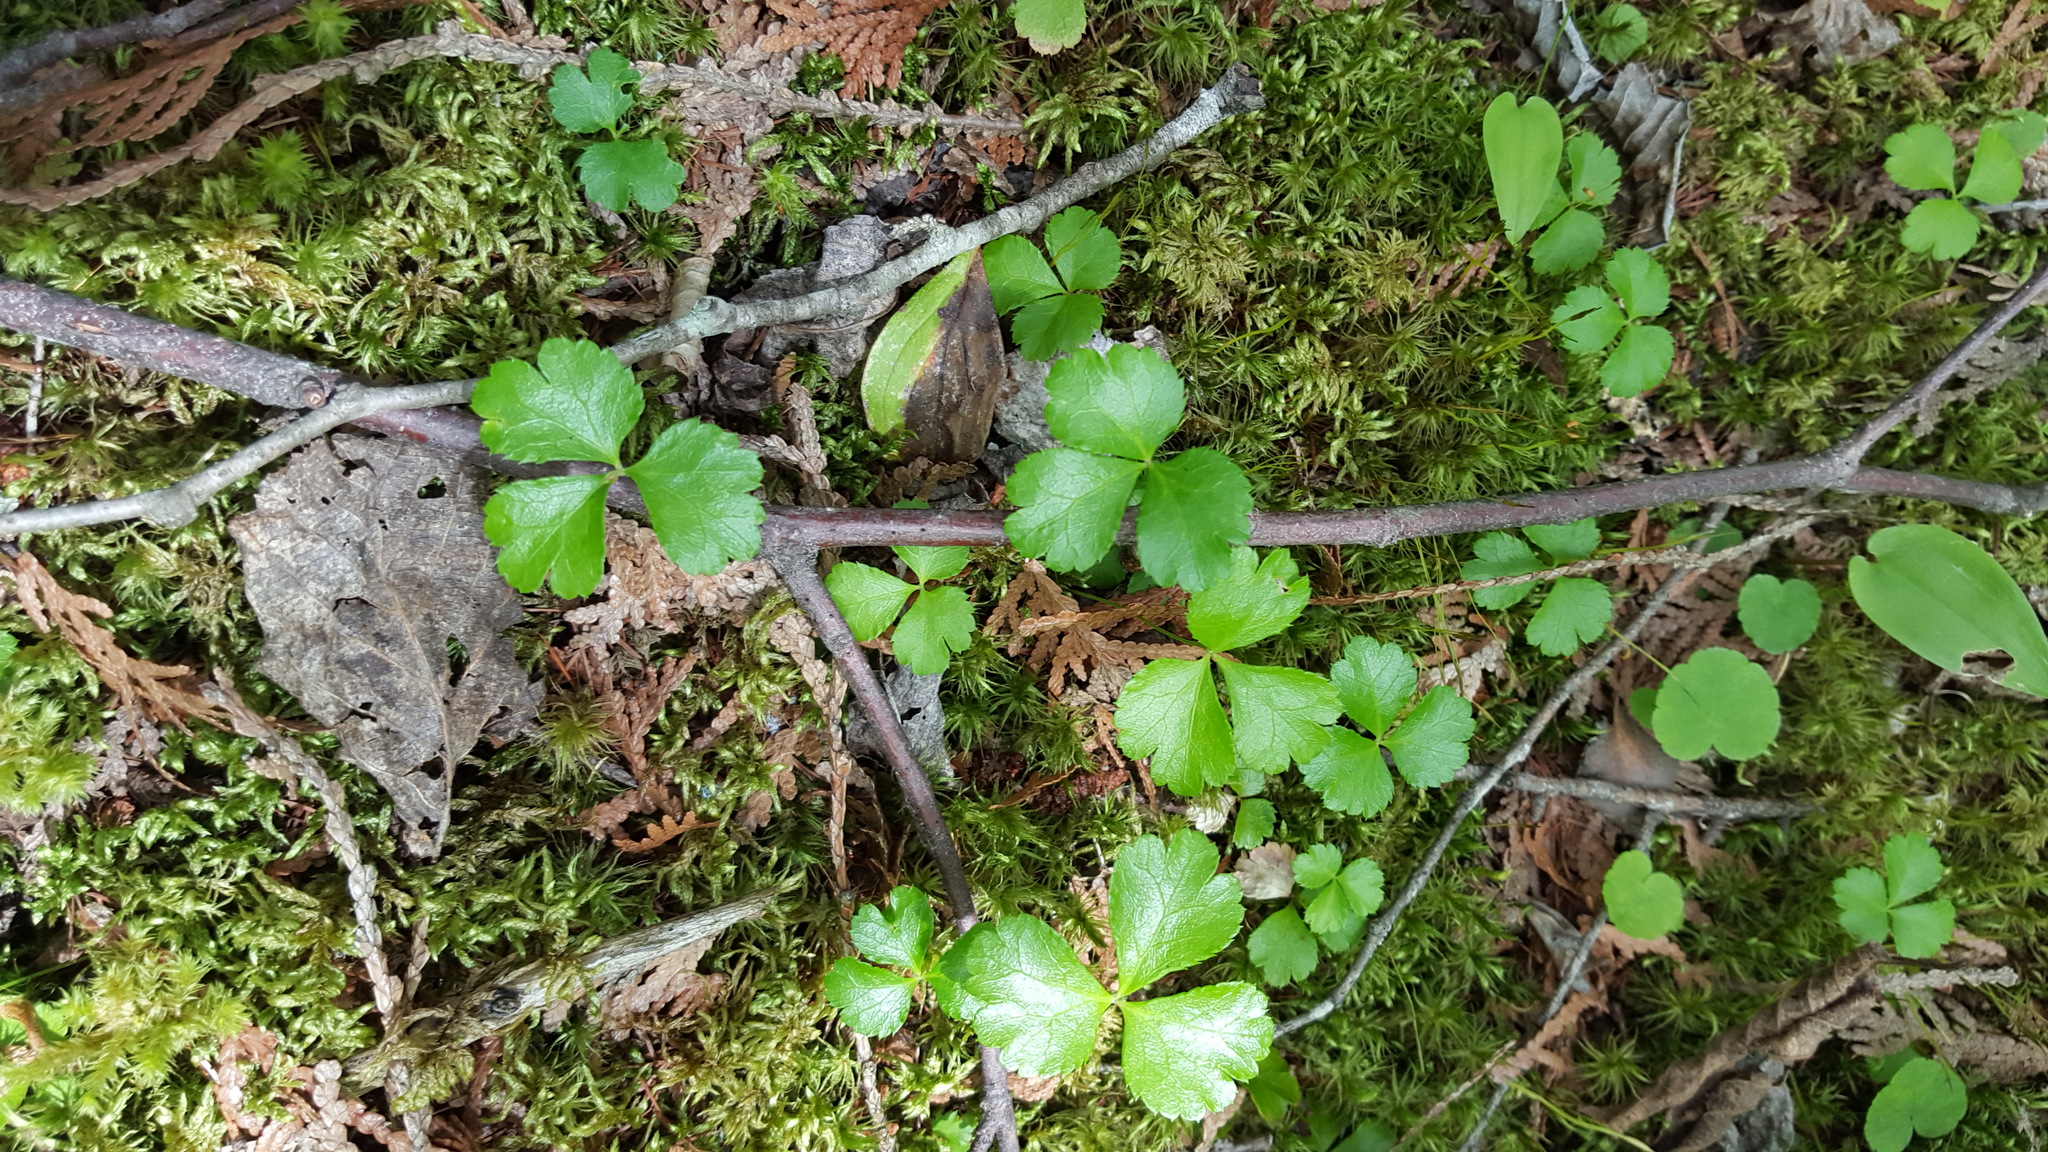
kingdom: Plantae
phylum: Tracheophyta
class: Magnoliopsida
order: Ranunculales
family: Ranunculaceae
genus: Coptis
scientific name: Coptis trifolia
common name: Canker-root
